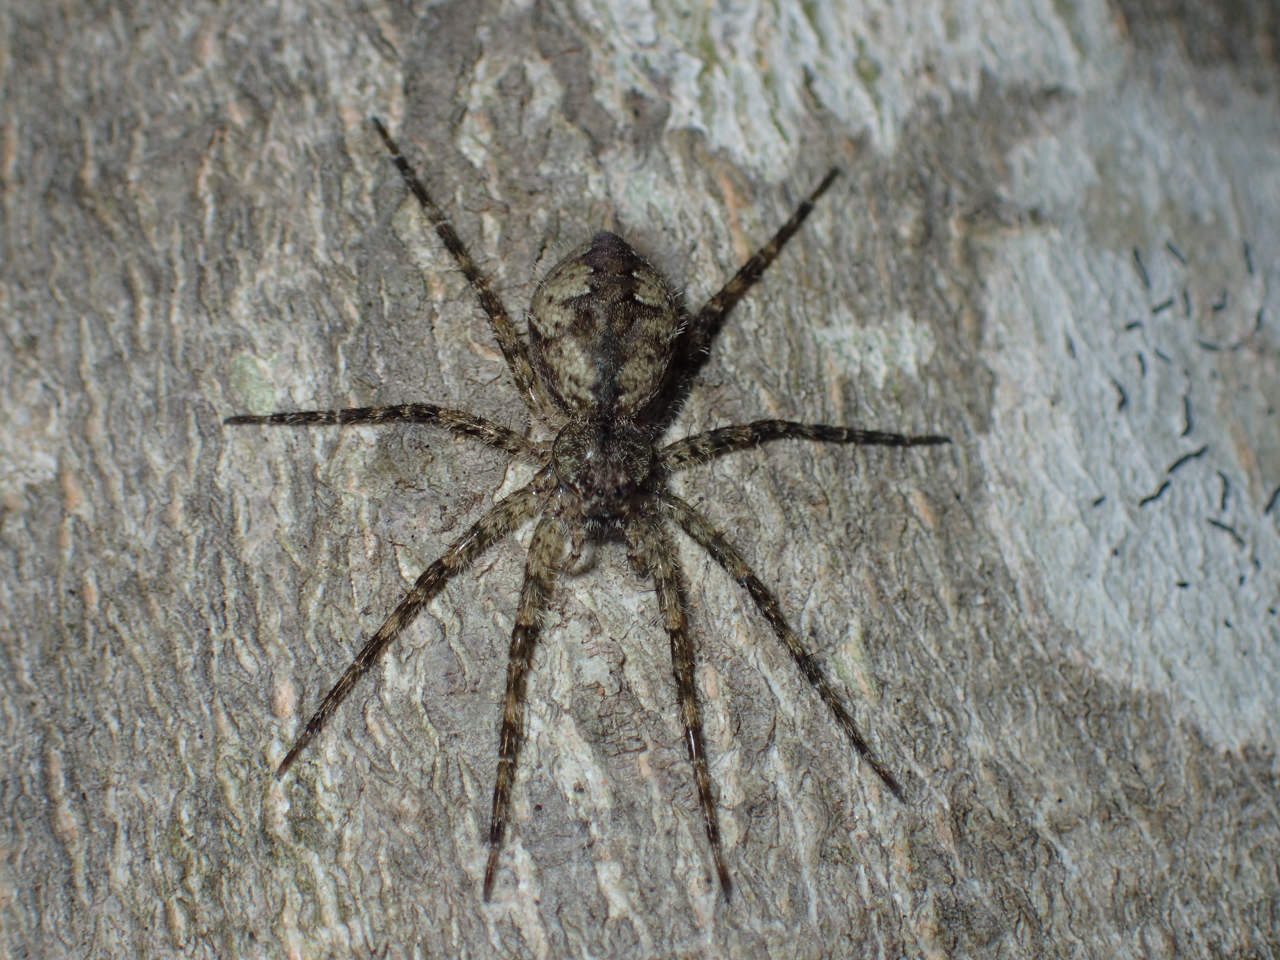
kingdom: Animalia
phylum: Arthropoda
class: Arachnida
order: Araneae
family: Pisauridae
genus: Dolomedes
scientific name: Dolomedes albineus
